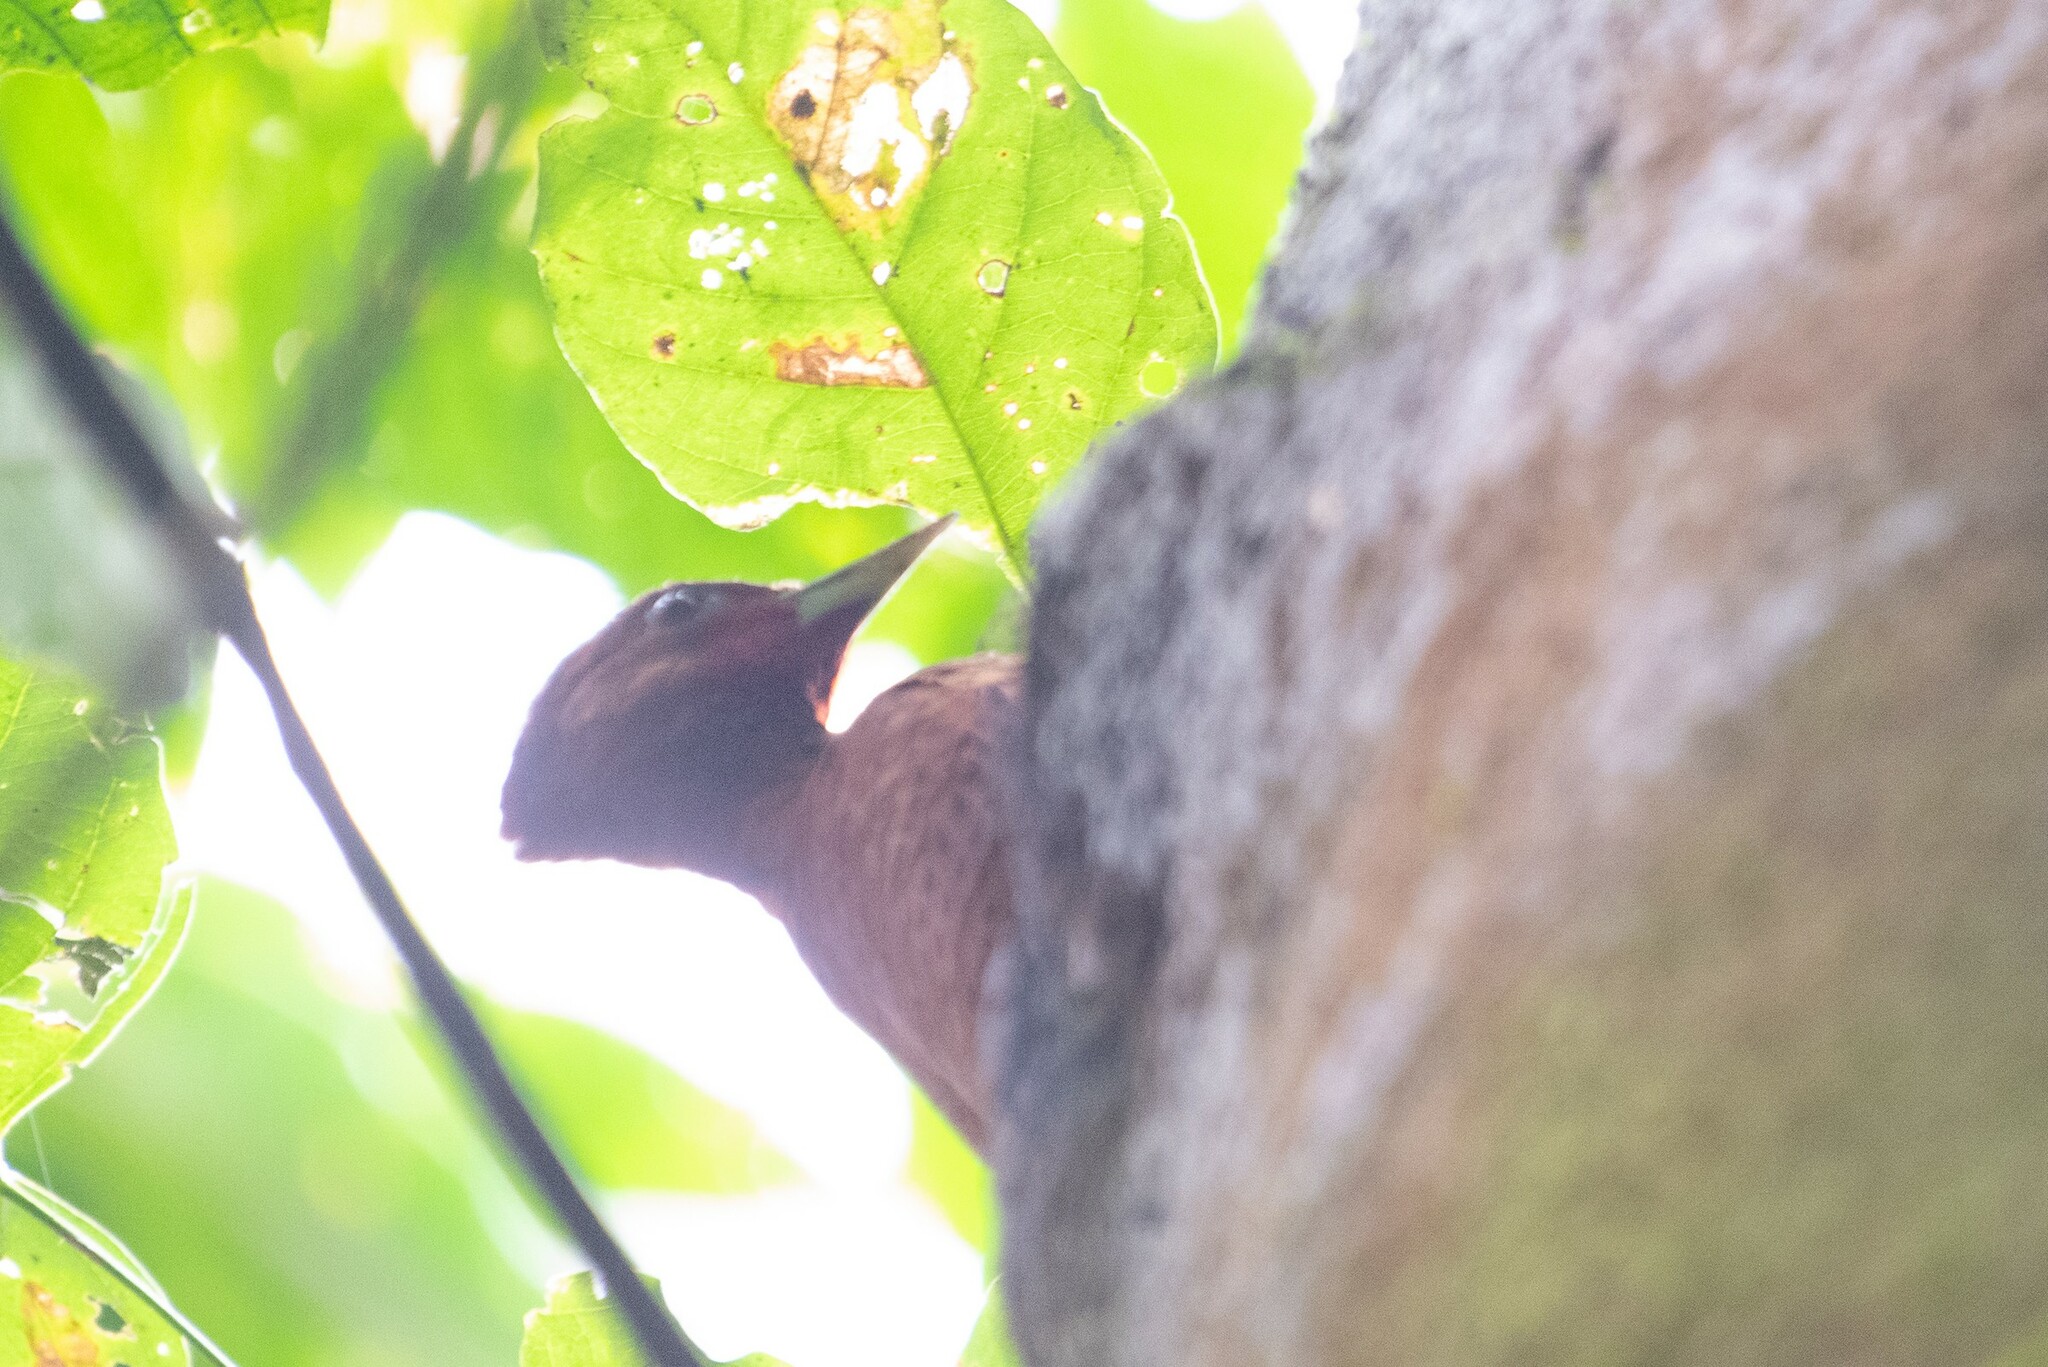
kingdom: Animalia
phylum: Chordata
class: Aves
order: Piciformes
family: Picidae
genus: Celeus
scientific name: Celeus loricatus
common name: Cinnamon woodpecker
